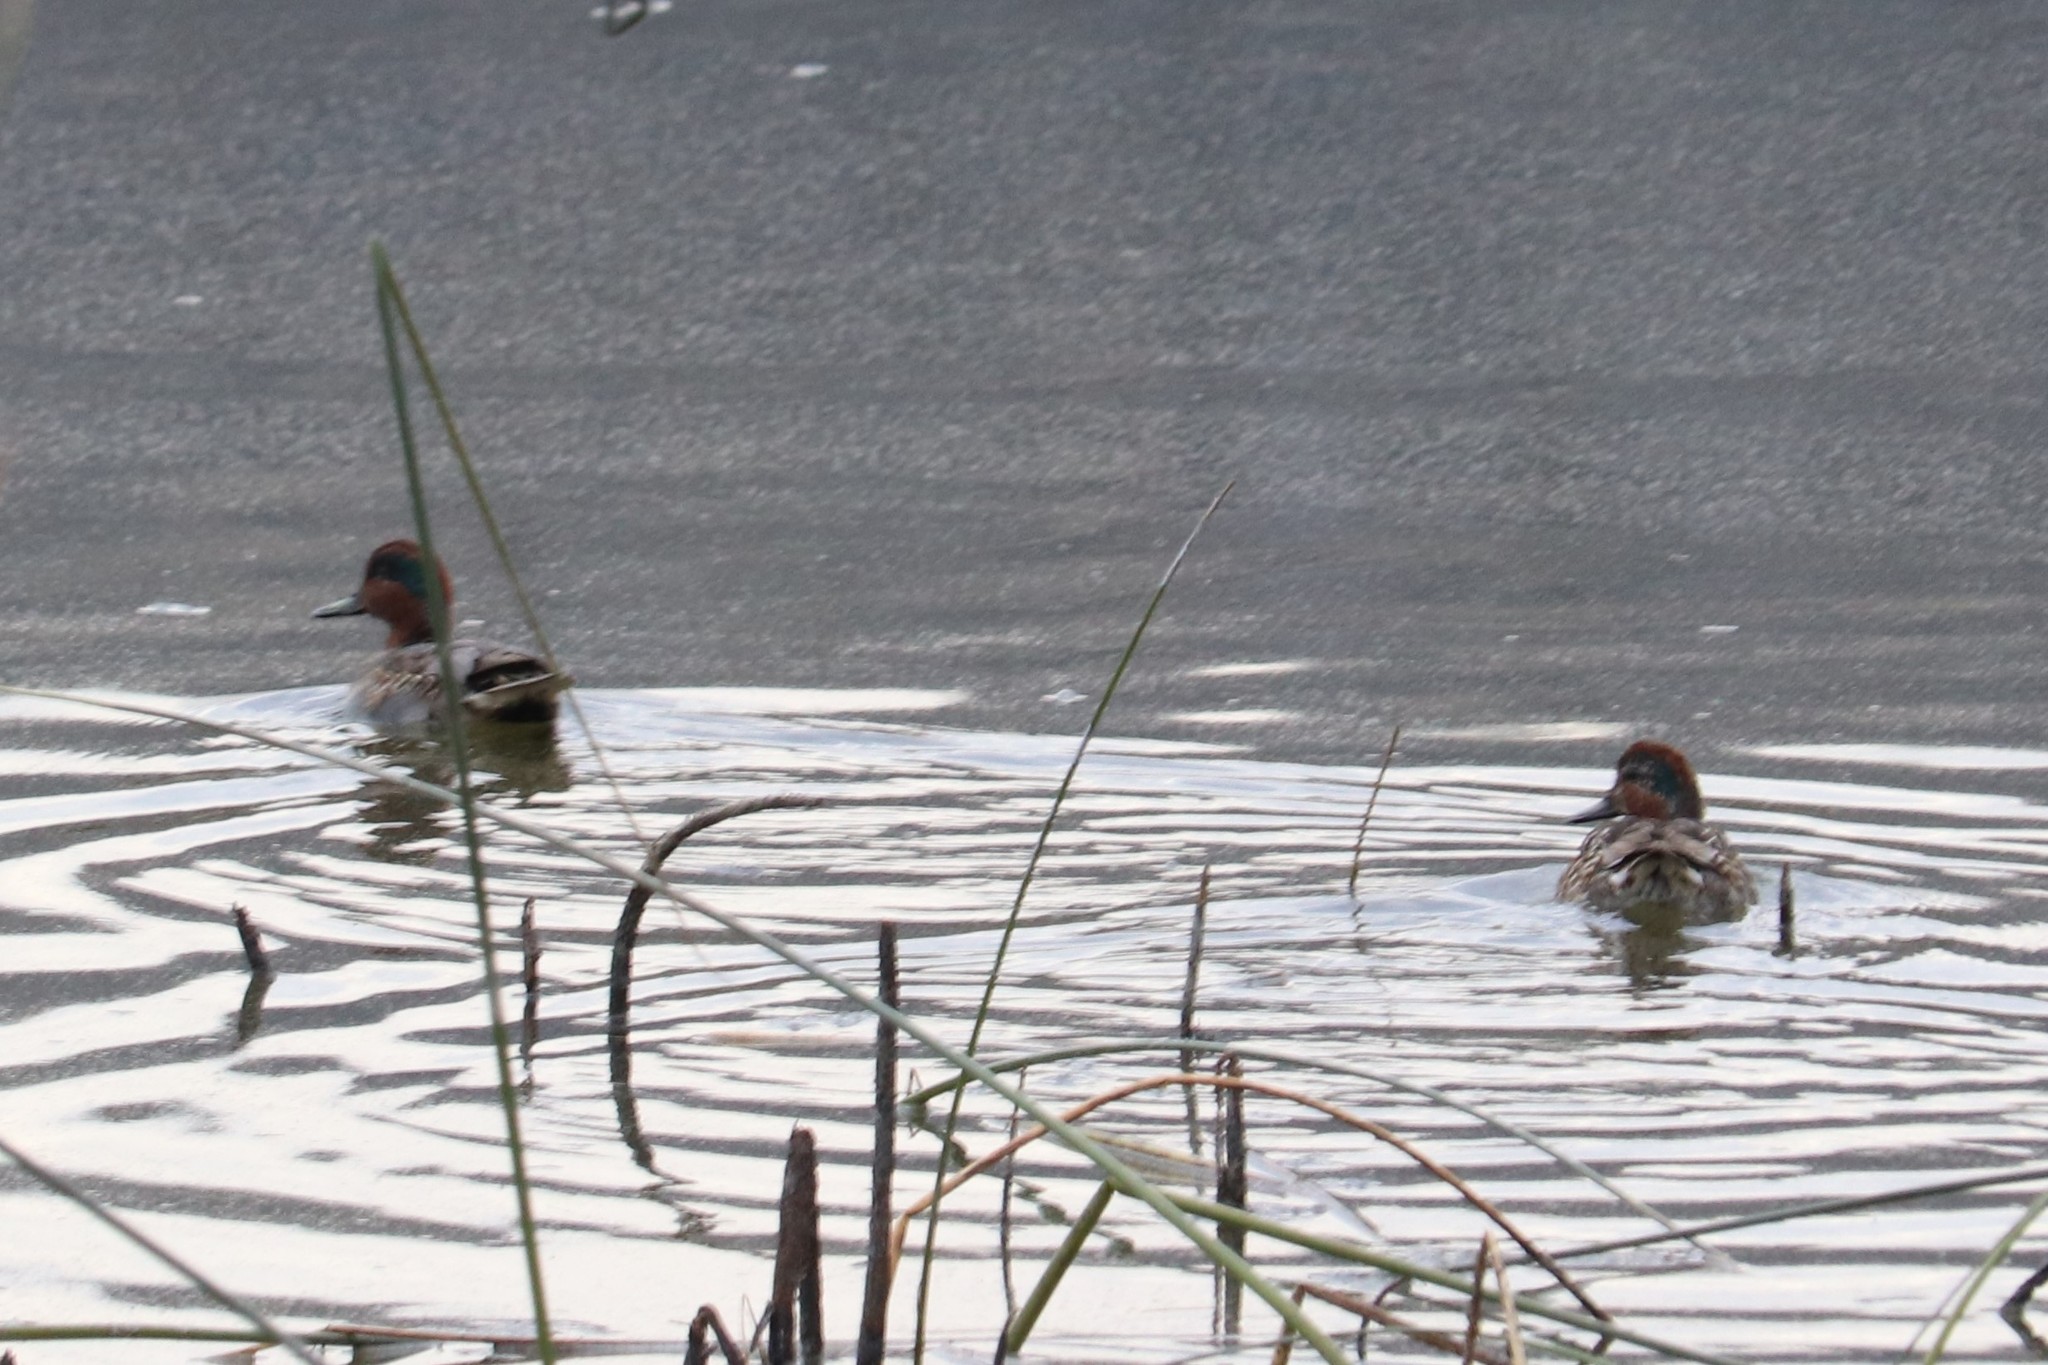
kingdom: Animalia
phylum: Chordata
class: Aves
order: Anseriformes
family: Anatidae
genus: Anas
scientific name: Anas crecca
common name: Eurasian teal
